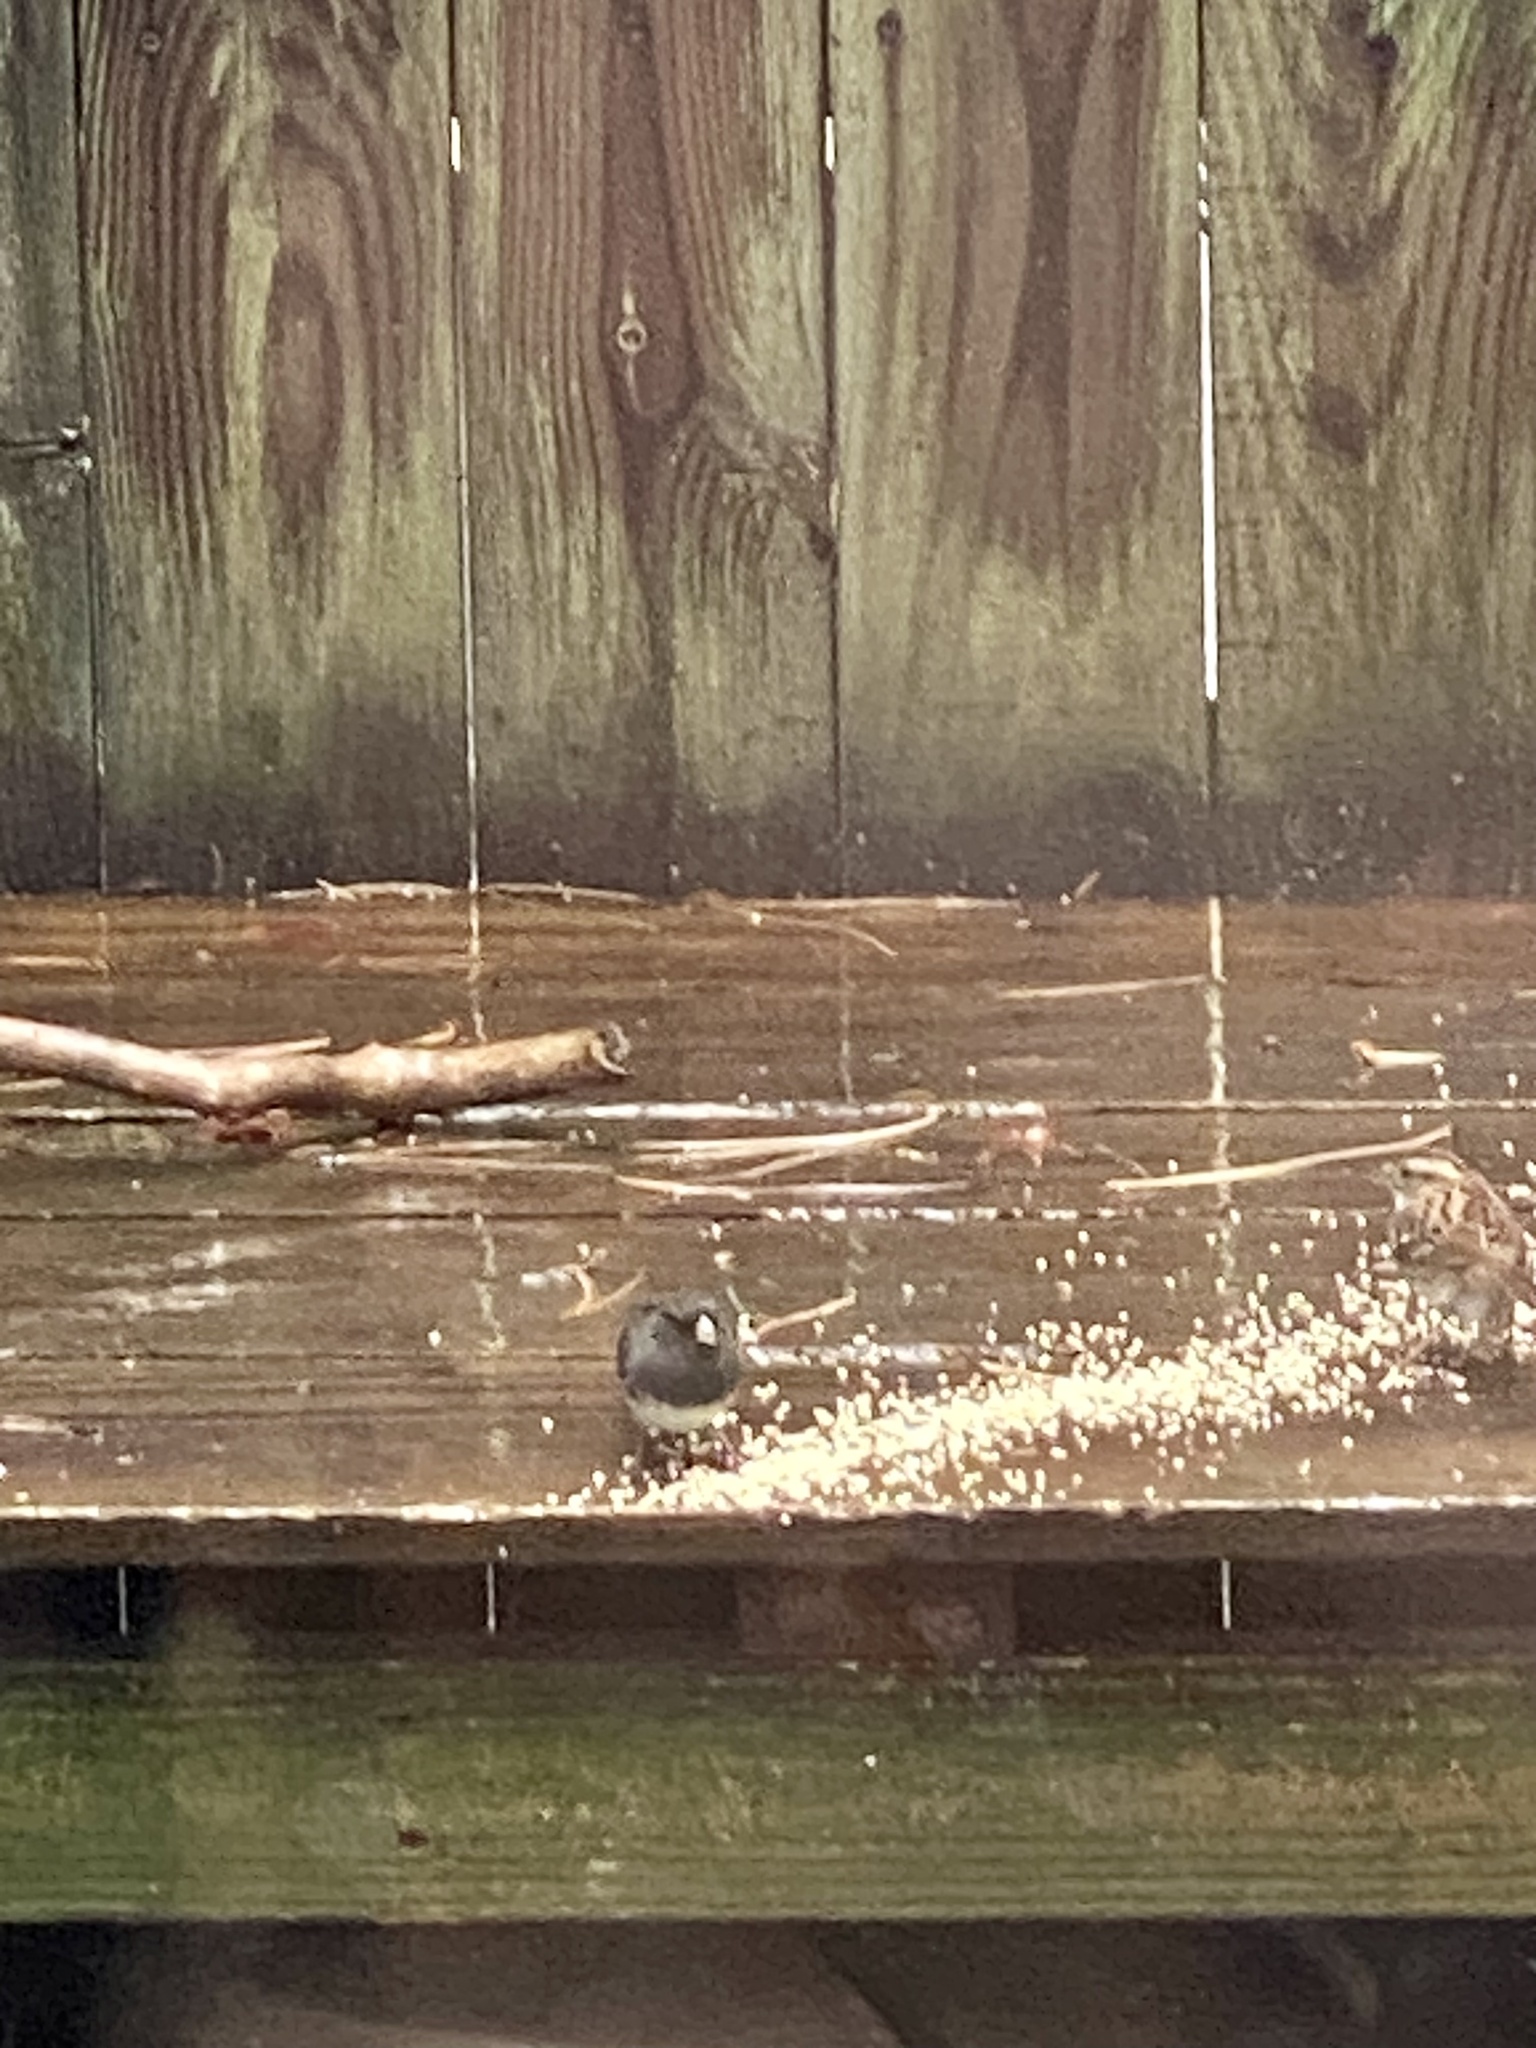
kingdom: Animalia
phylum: Chordata
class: Aves
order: Passeriformes
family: Passerellidae
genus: Junco
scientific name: Junco hyemalis
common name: Dark-eyed junco
